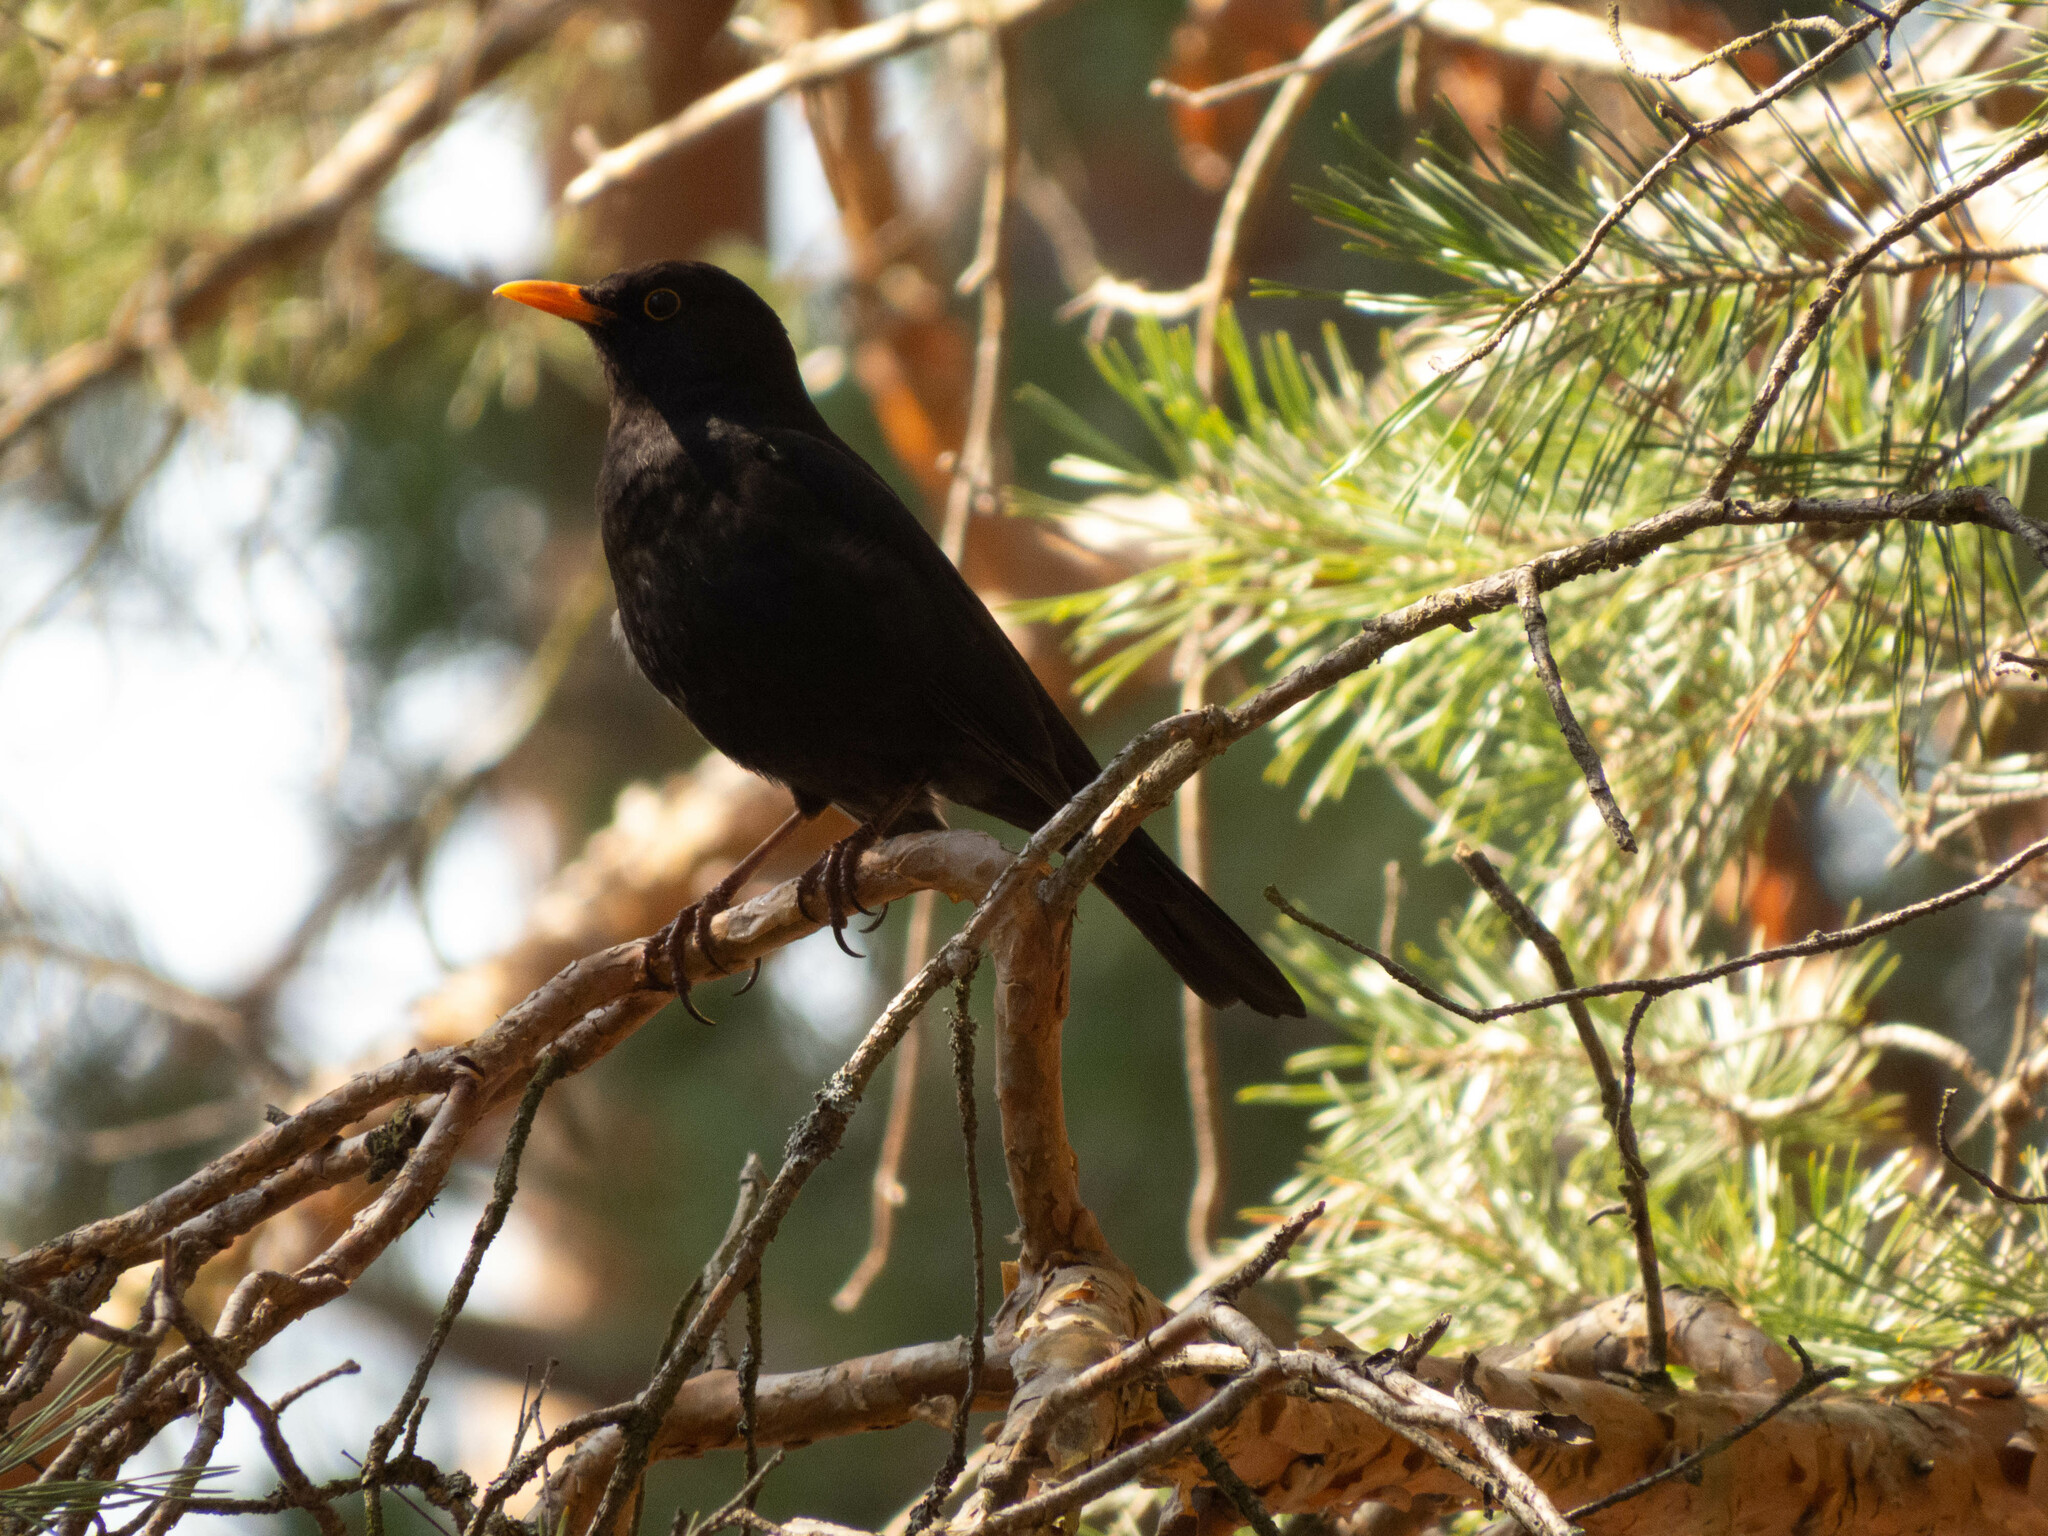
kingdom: Animalia
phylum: Chordata
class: Aves
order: Passeriformes
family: Turdidae
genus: Turdus
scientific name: Turdus merula
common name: Common blackbird
